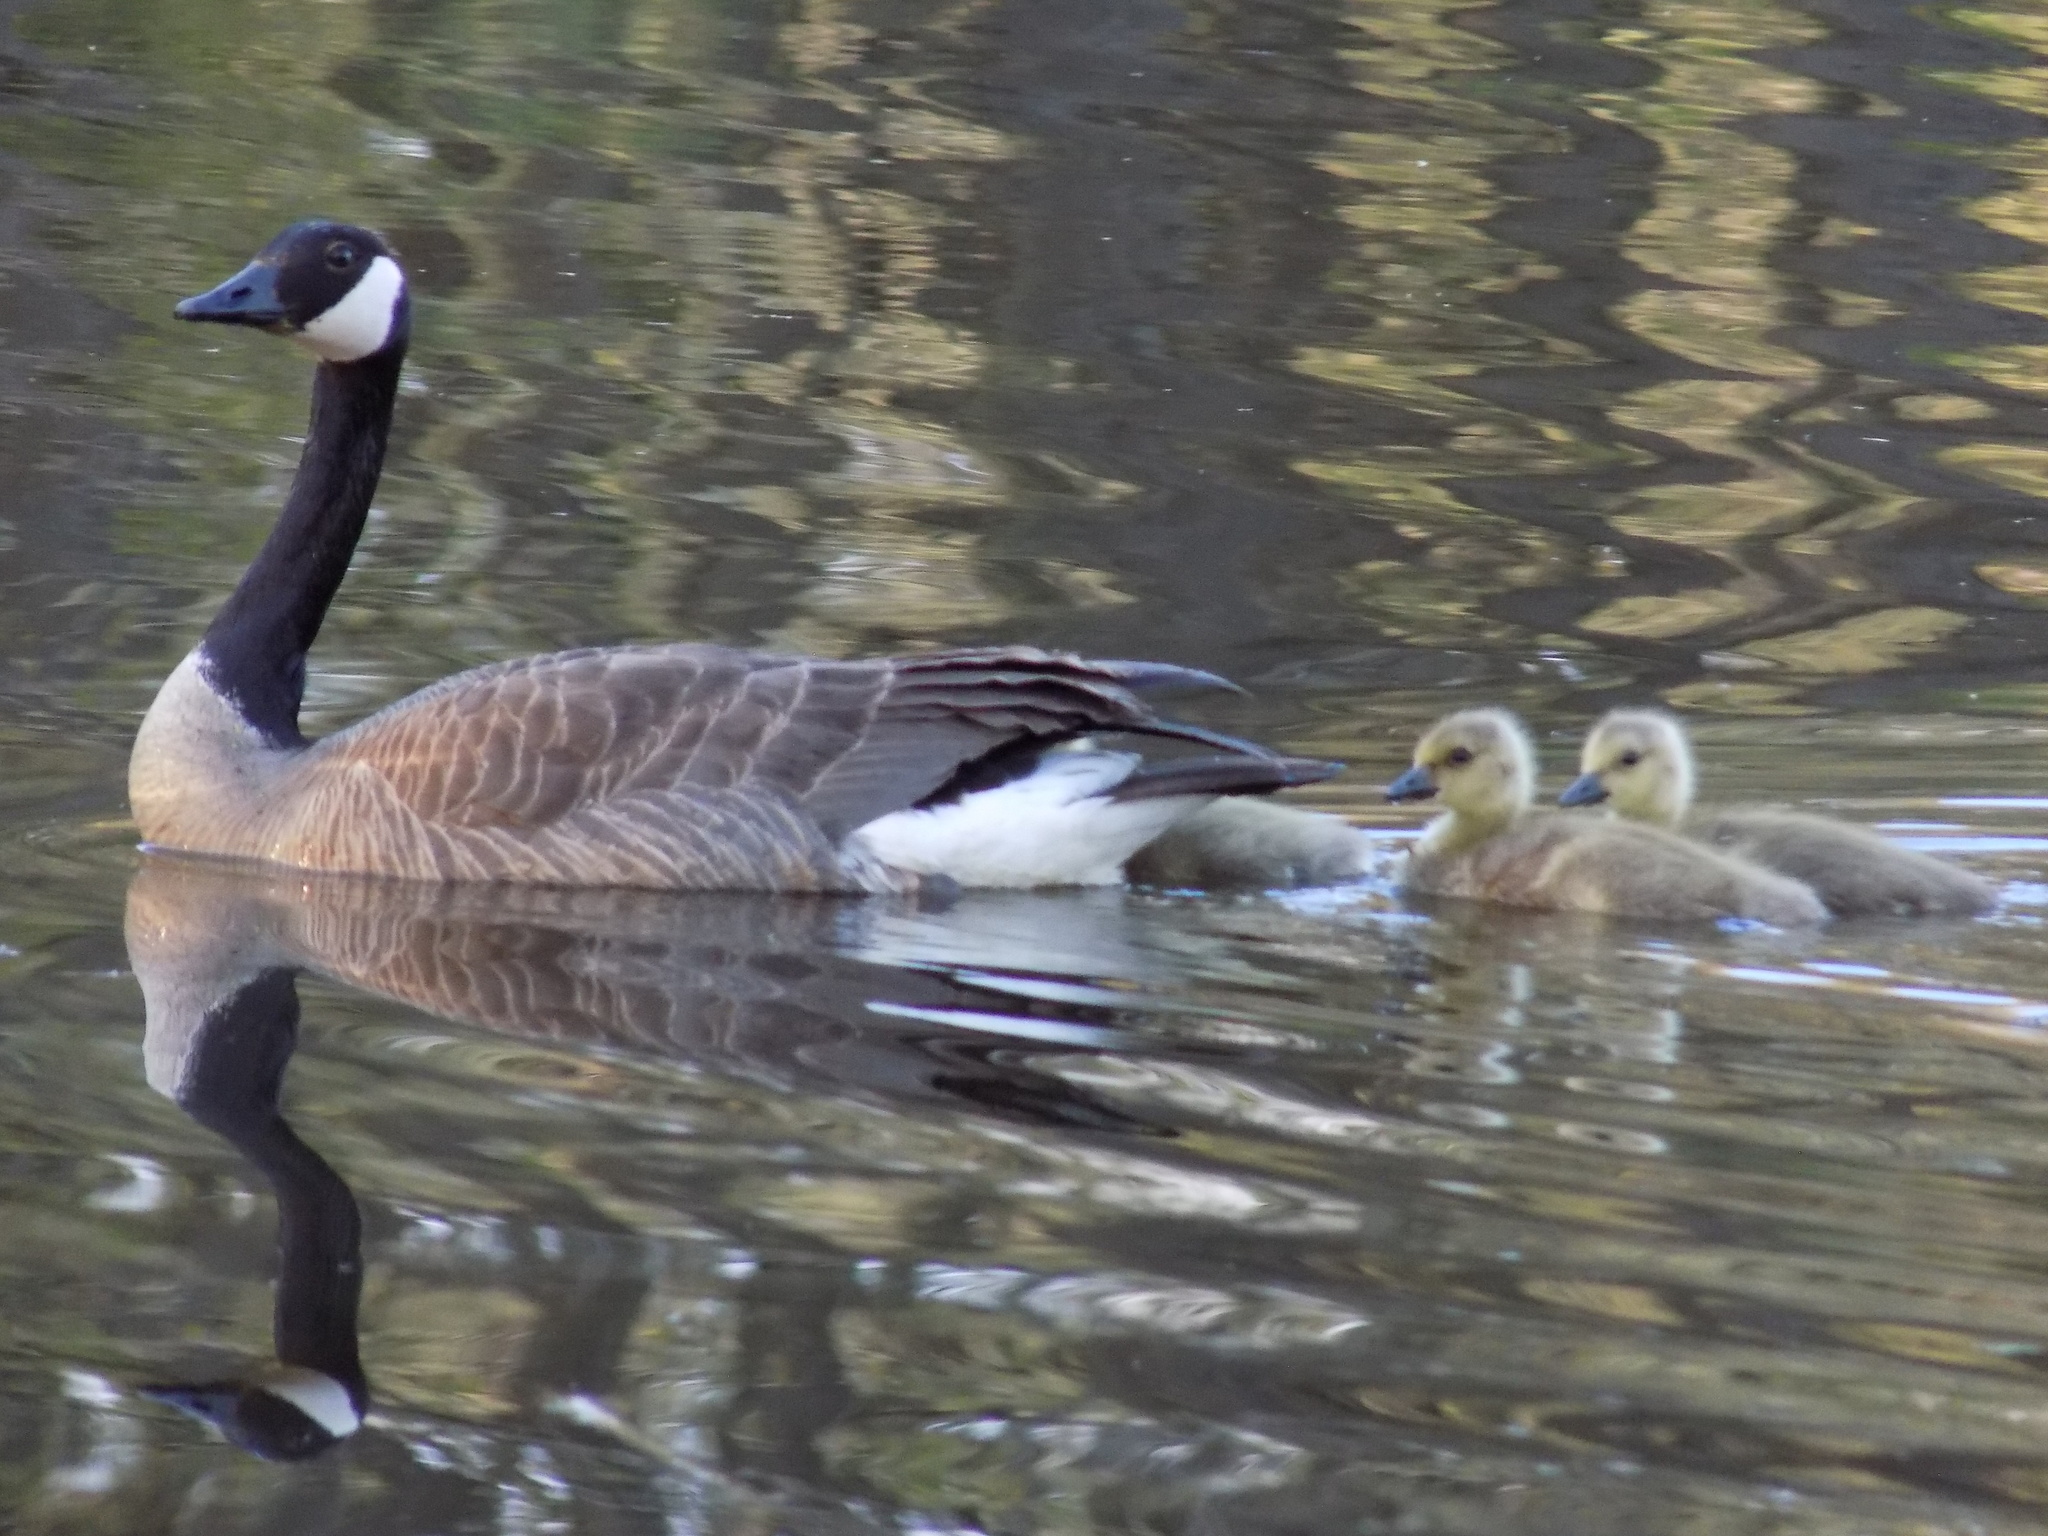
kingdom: Animalia
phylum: Chordata
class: Aves
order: Anseriformes
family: Anatidae
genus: Branta
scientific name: Branta canadensis
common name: Canada goose
